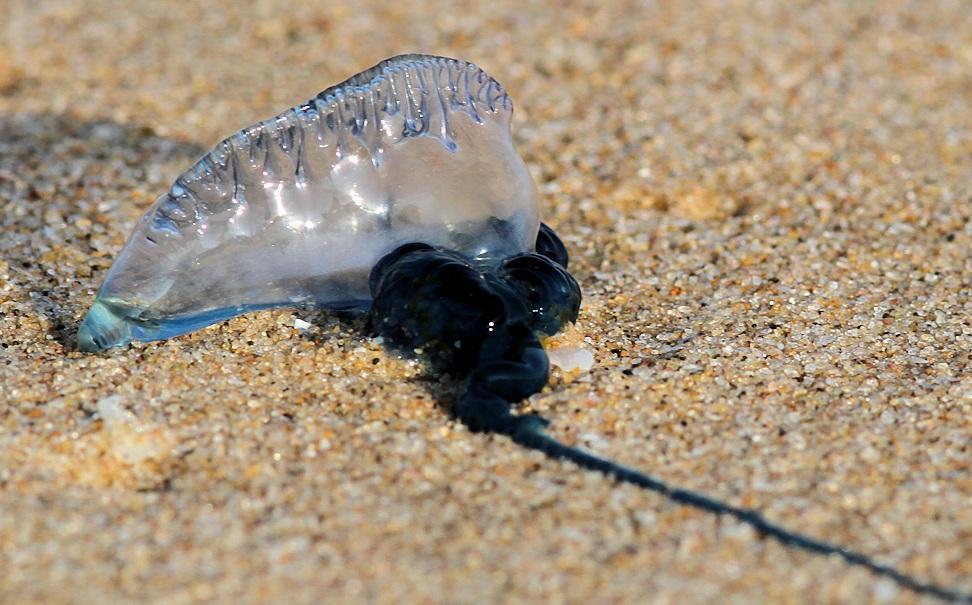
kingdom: Animalia
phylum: Cnidaria
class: Hydrozoa
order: Siphonophorae
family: Physaliidae
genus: Physalia
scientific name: Physalia physalis
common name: Portuguese man-of-war
